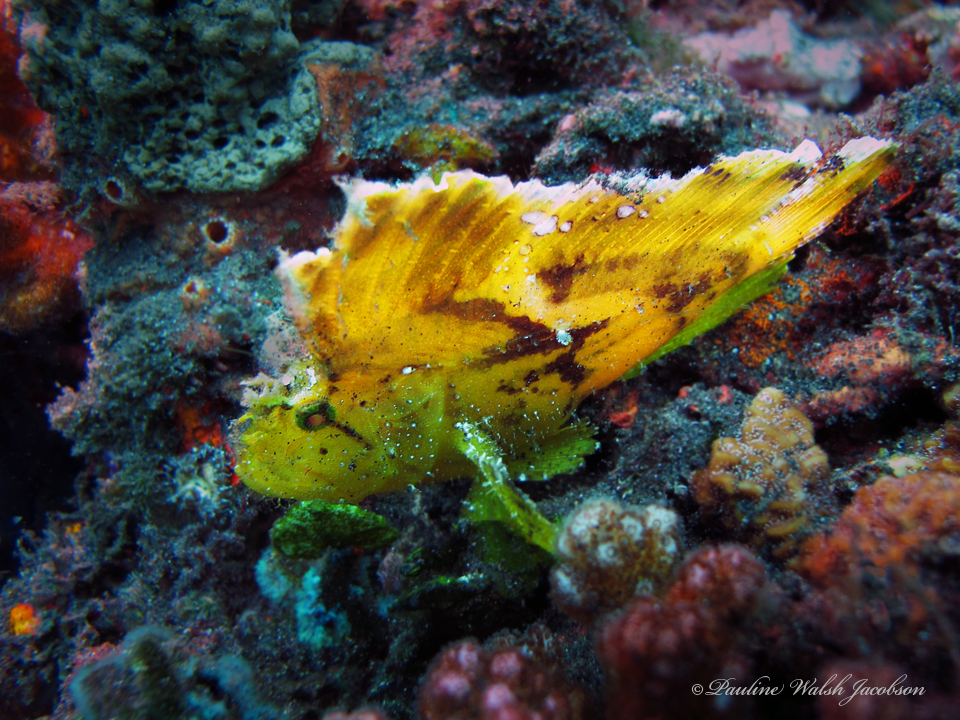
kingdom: Animalia
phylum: Chordata
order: Scorpaeniformes
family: Scorpaenidae
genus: Taenianotus
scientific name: Taenianotus triacanthus
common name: Leaf scorpionfish
